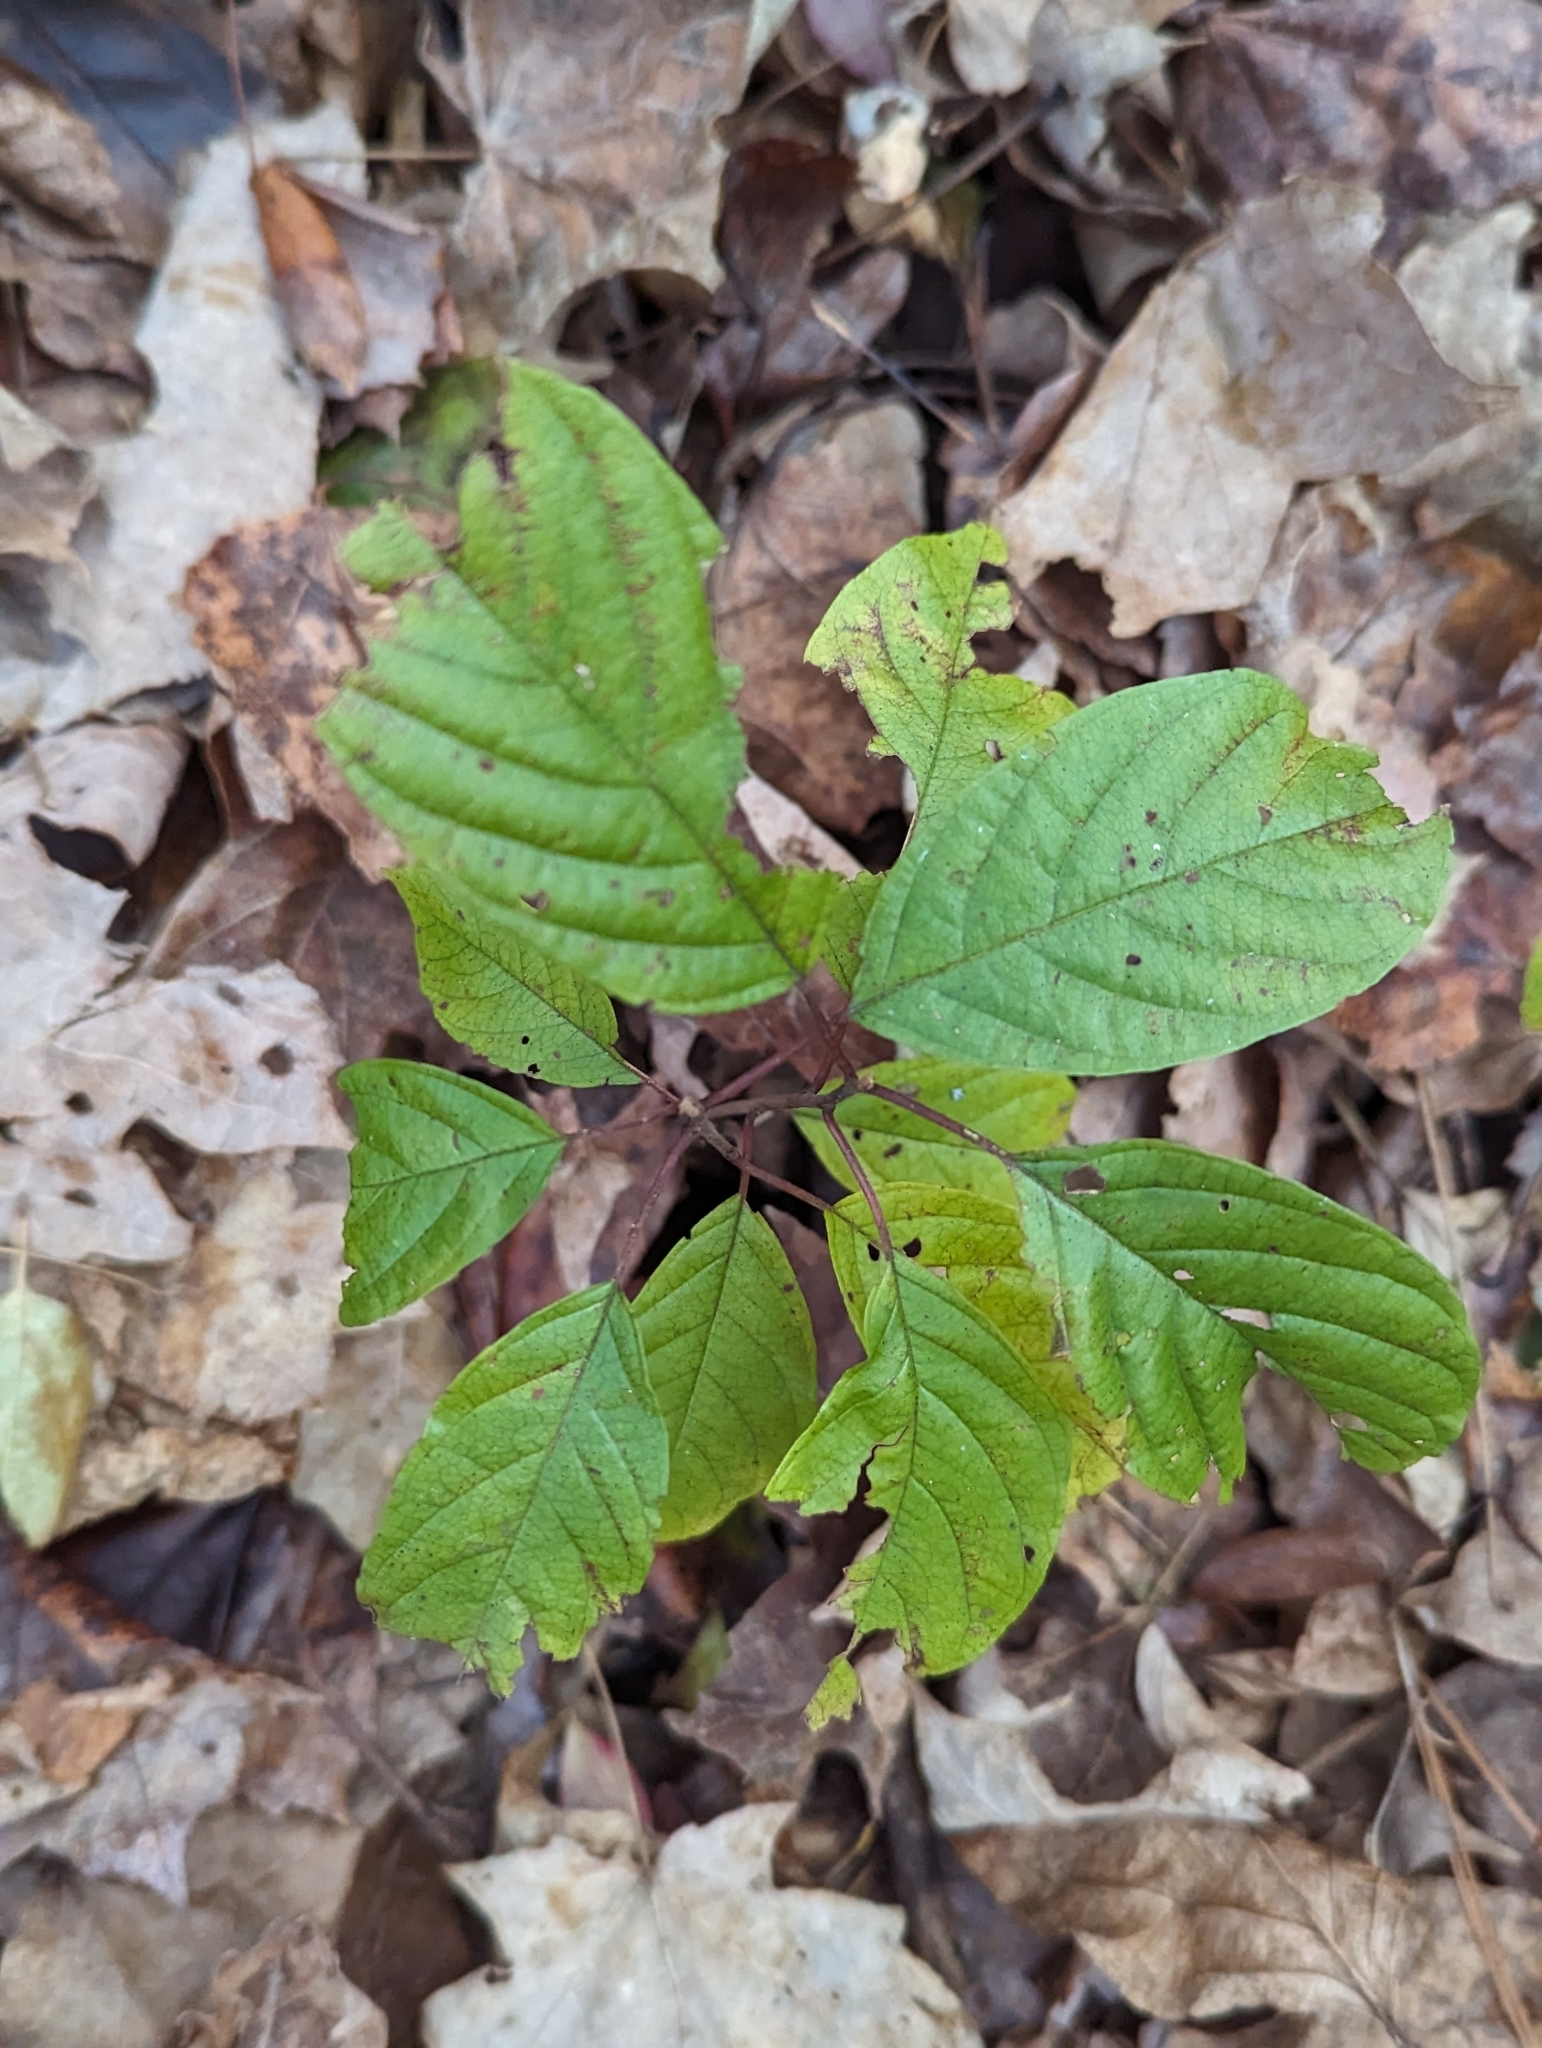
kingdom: Plantae
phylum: Tracheophyta
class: Magnoliopsida
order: Rosales
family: Rhamnaceae
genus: Frangula
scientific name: Frangula alnus
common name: Alder buckthorn
